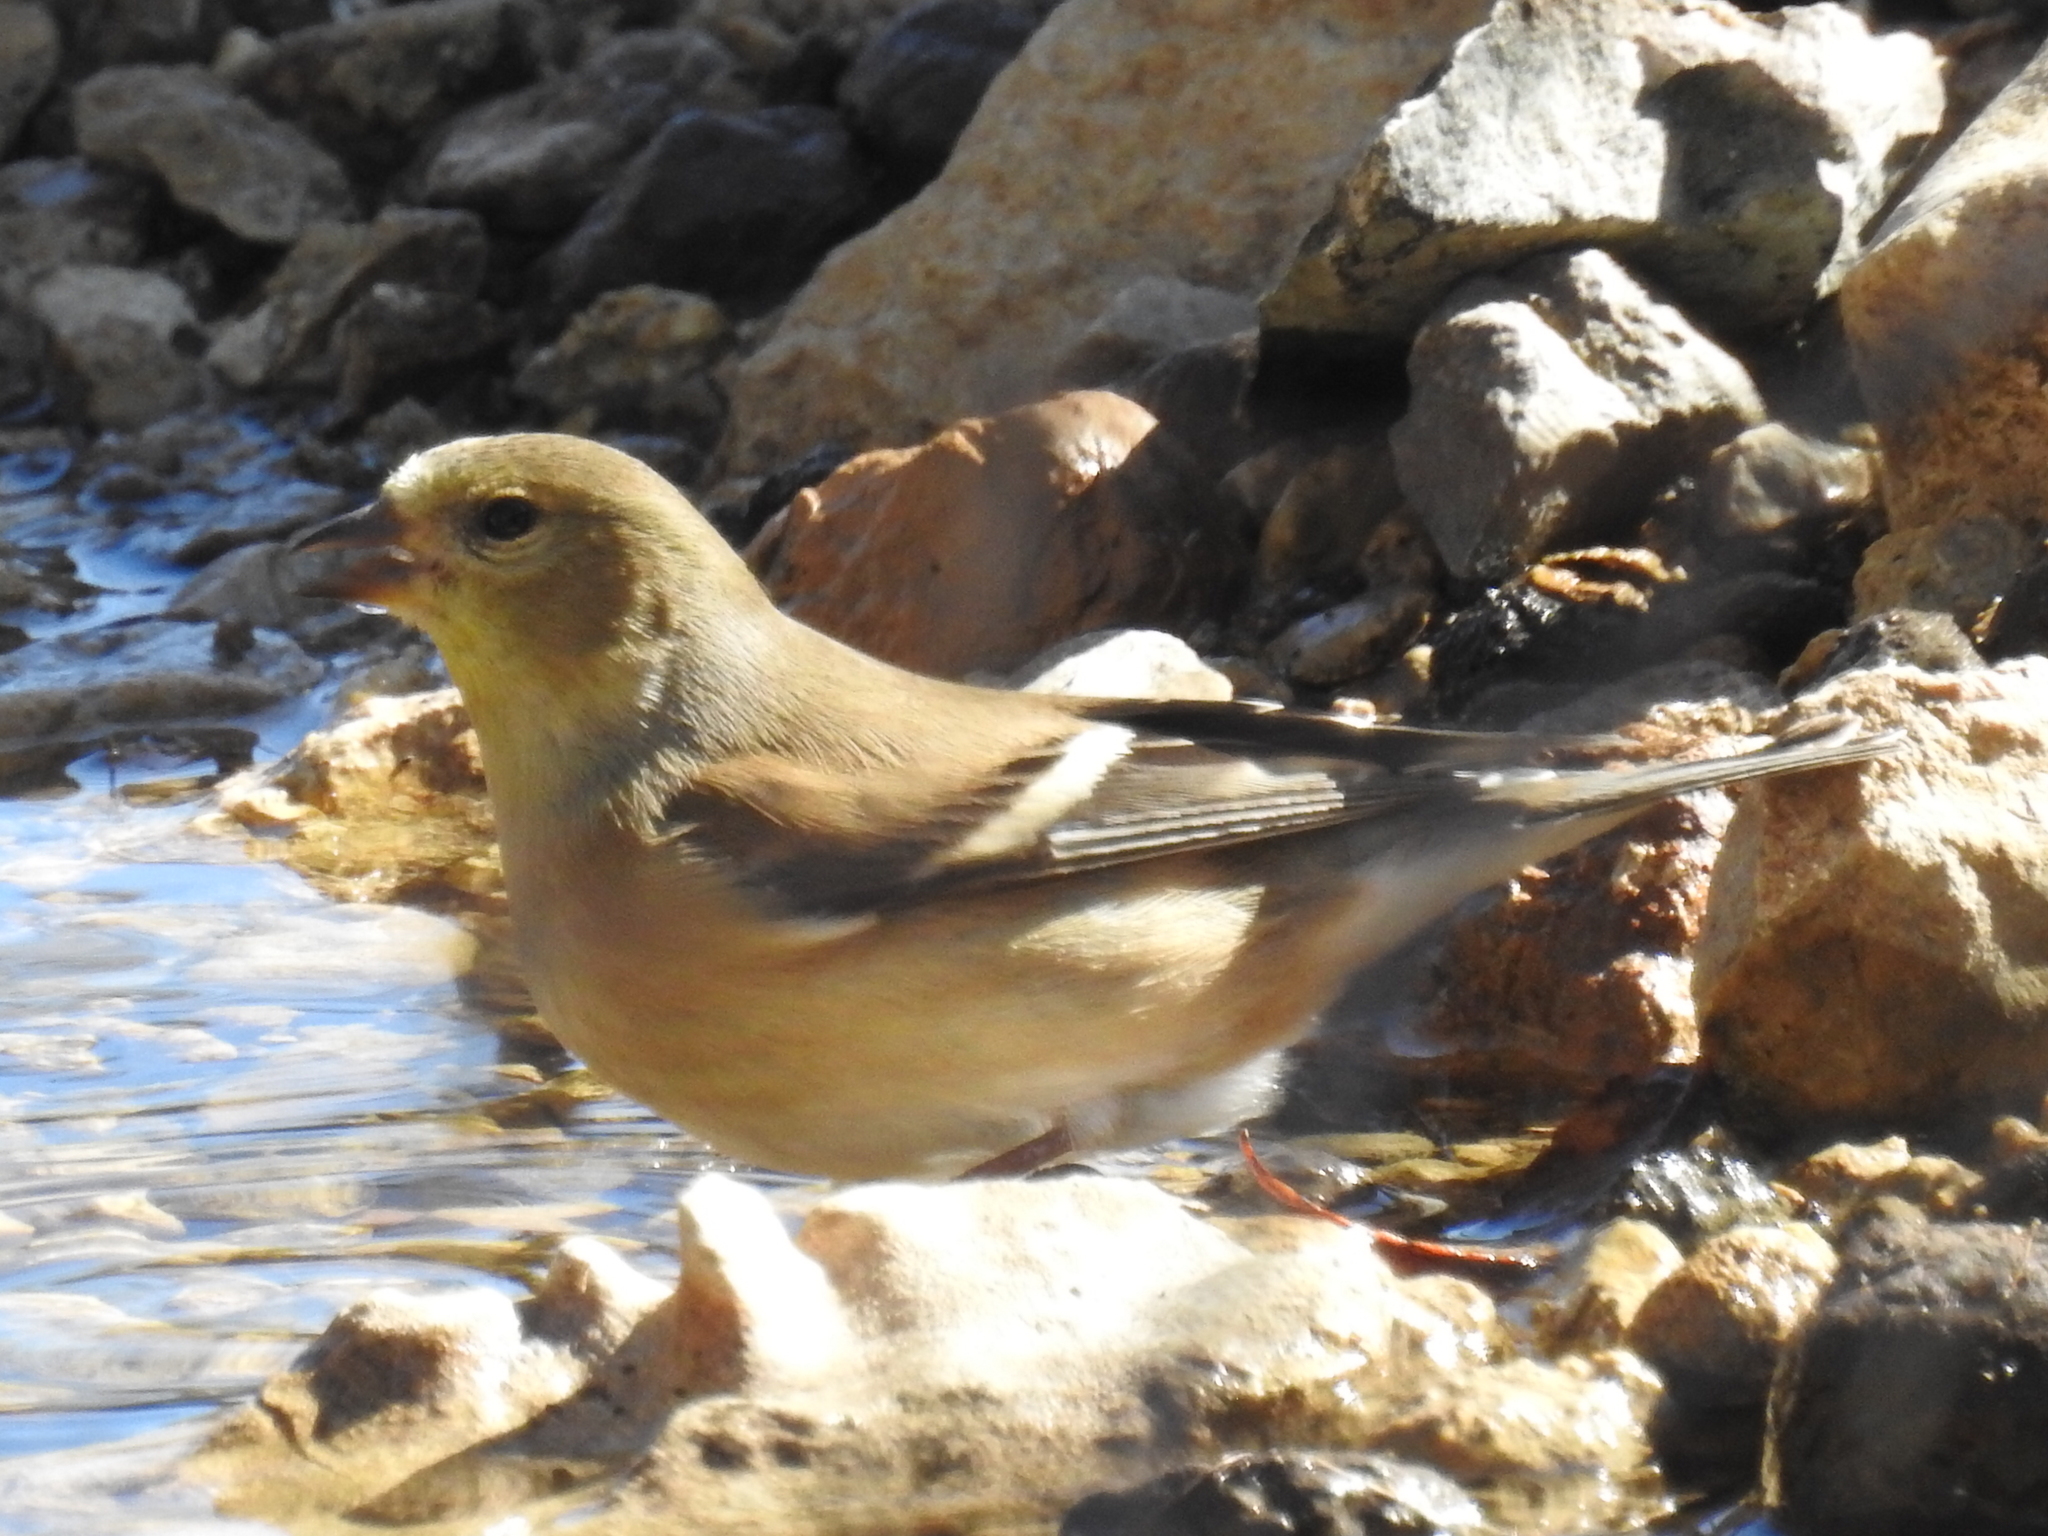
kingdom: Animalia
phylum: Chordata
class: Aves
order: Passeriformes
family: Fringillidae
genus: Spinus
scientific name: Spinus tristis
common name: American goldfinch
